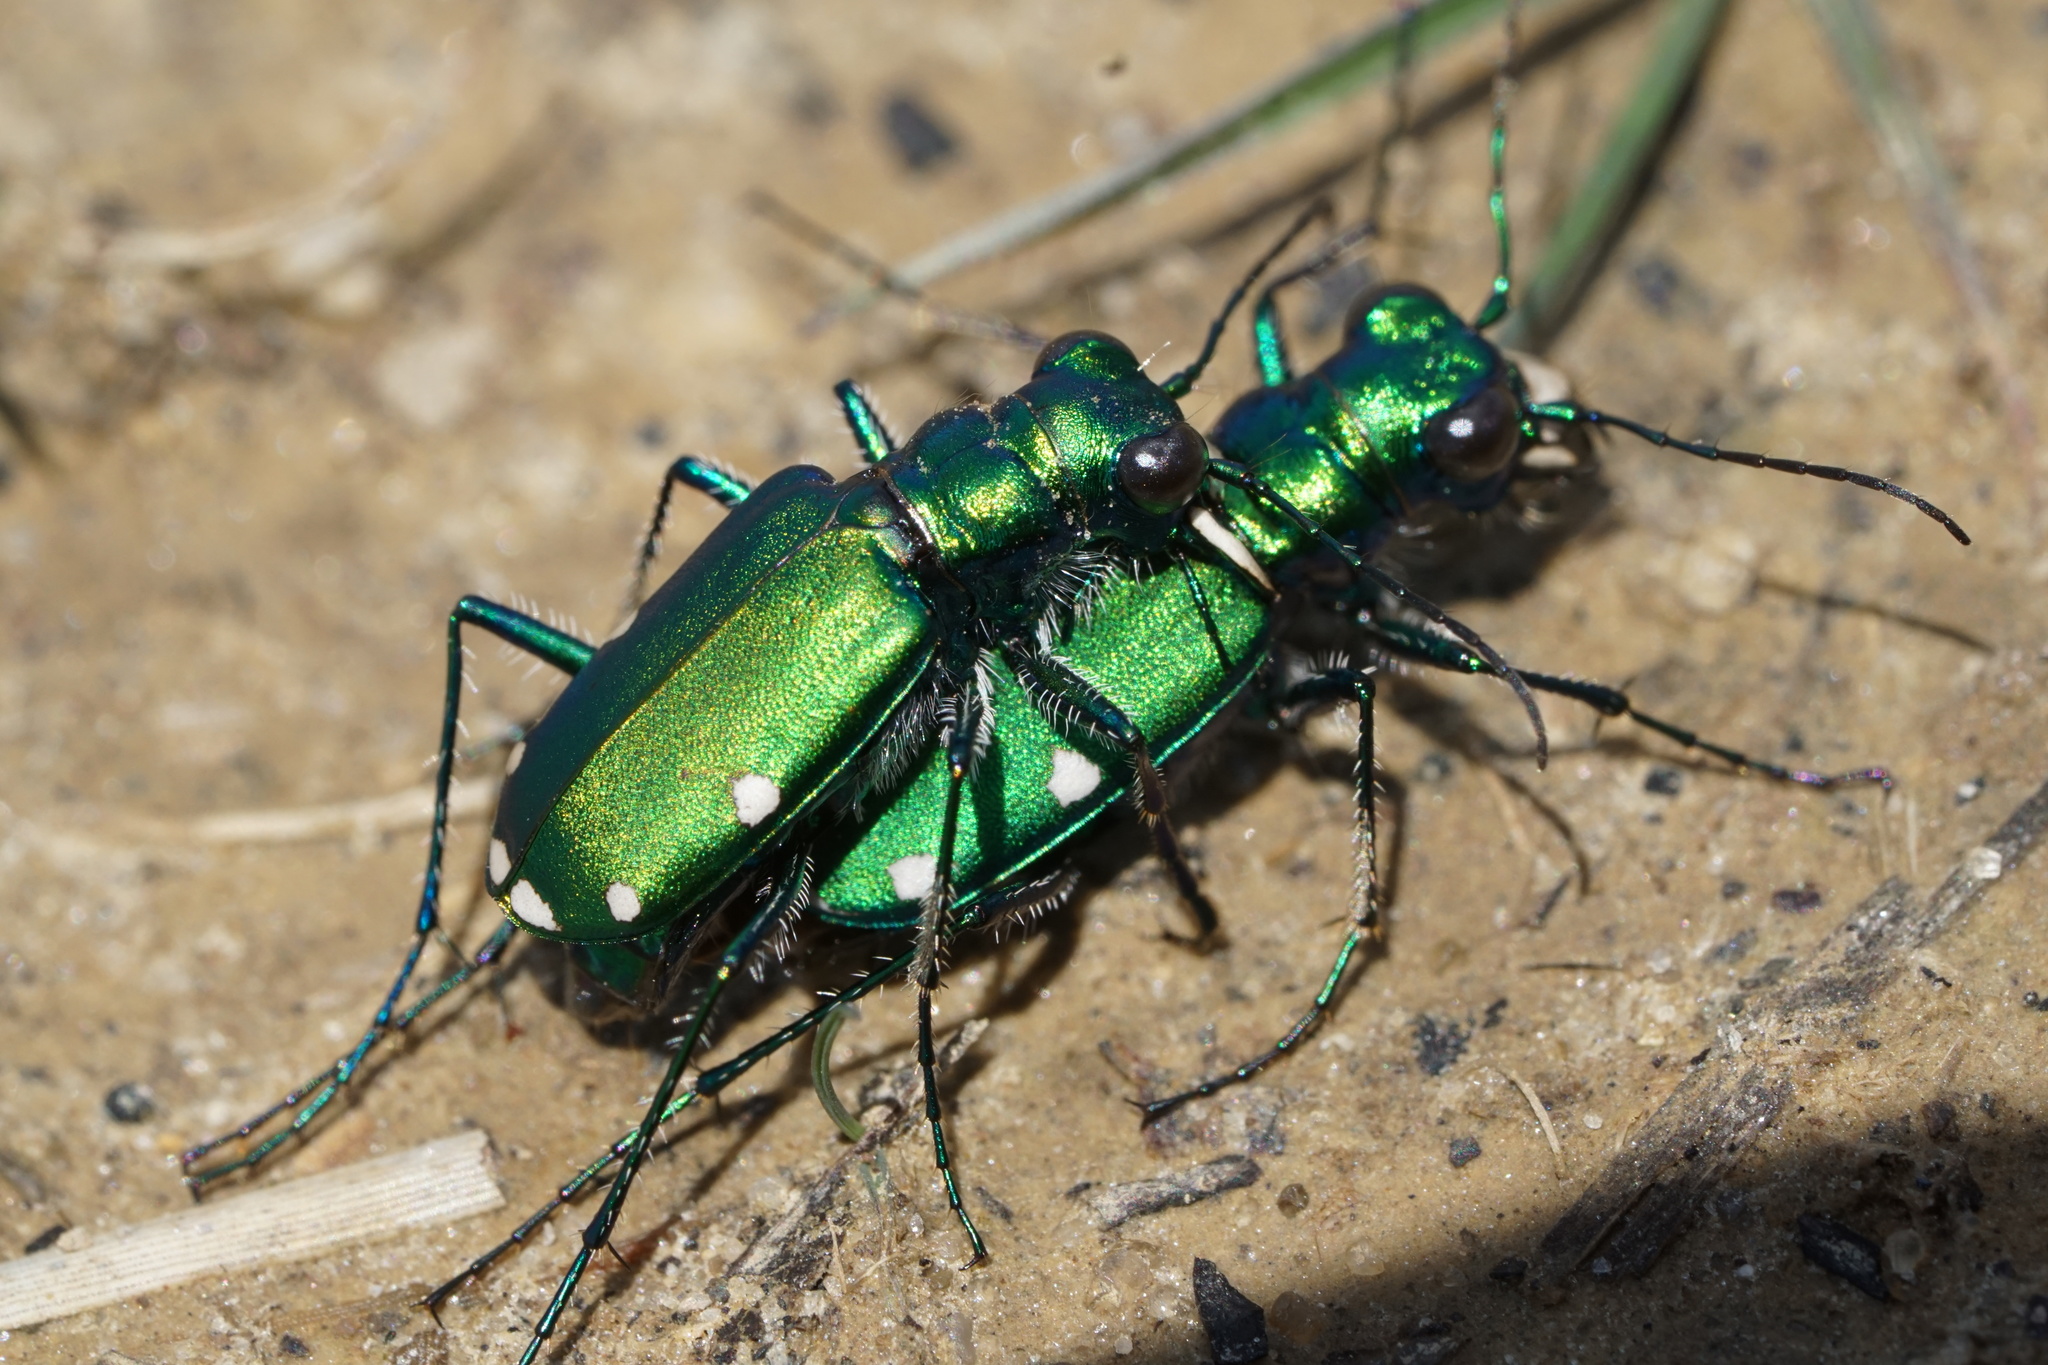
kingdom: Animalia
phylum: Arthropoda
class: Insecta
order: Coleoptera
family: Carabidae
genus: Cicindela
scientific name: Cicindela sexguttata
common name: Six-spotted tiger beetle
